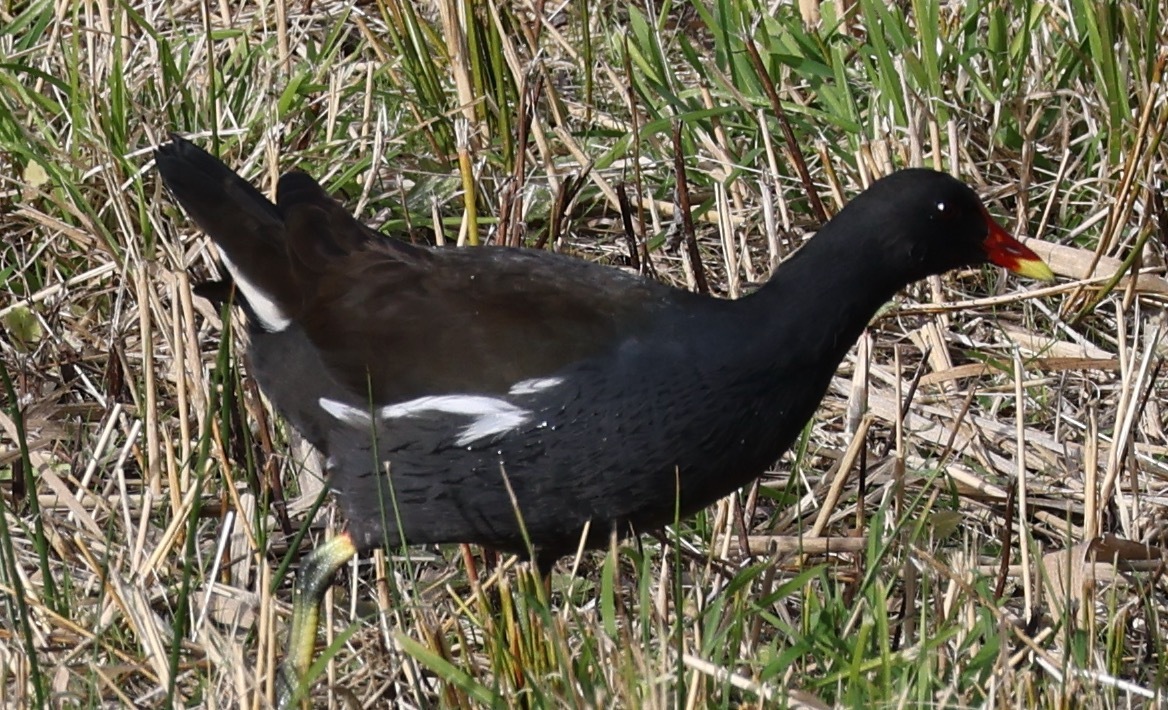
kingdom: Animalia
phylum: Chordata
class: Aves
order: Gruiformes
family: Rallidae
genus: Gallinula
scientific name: Gallinula chloropus
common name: Common moorhen
